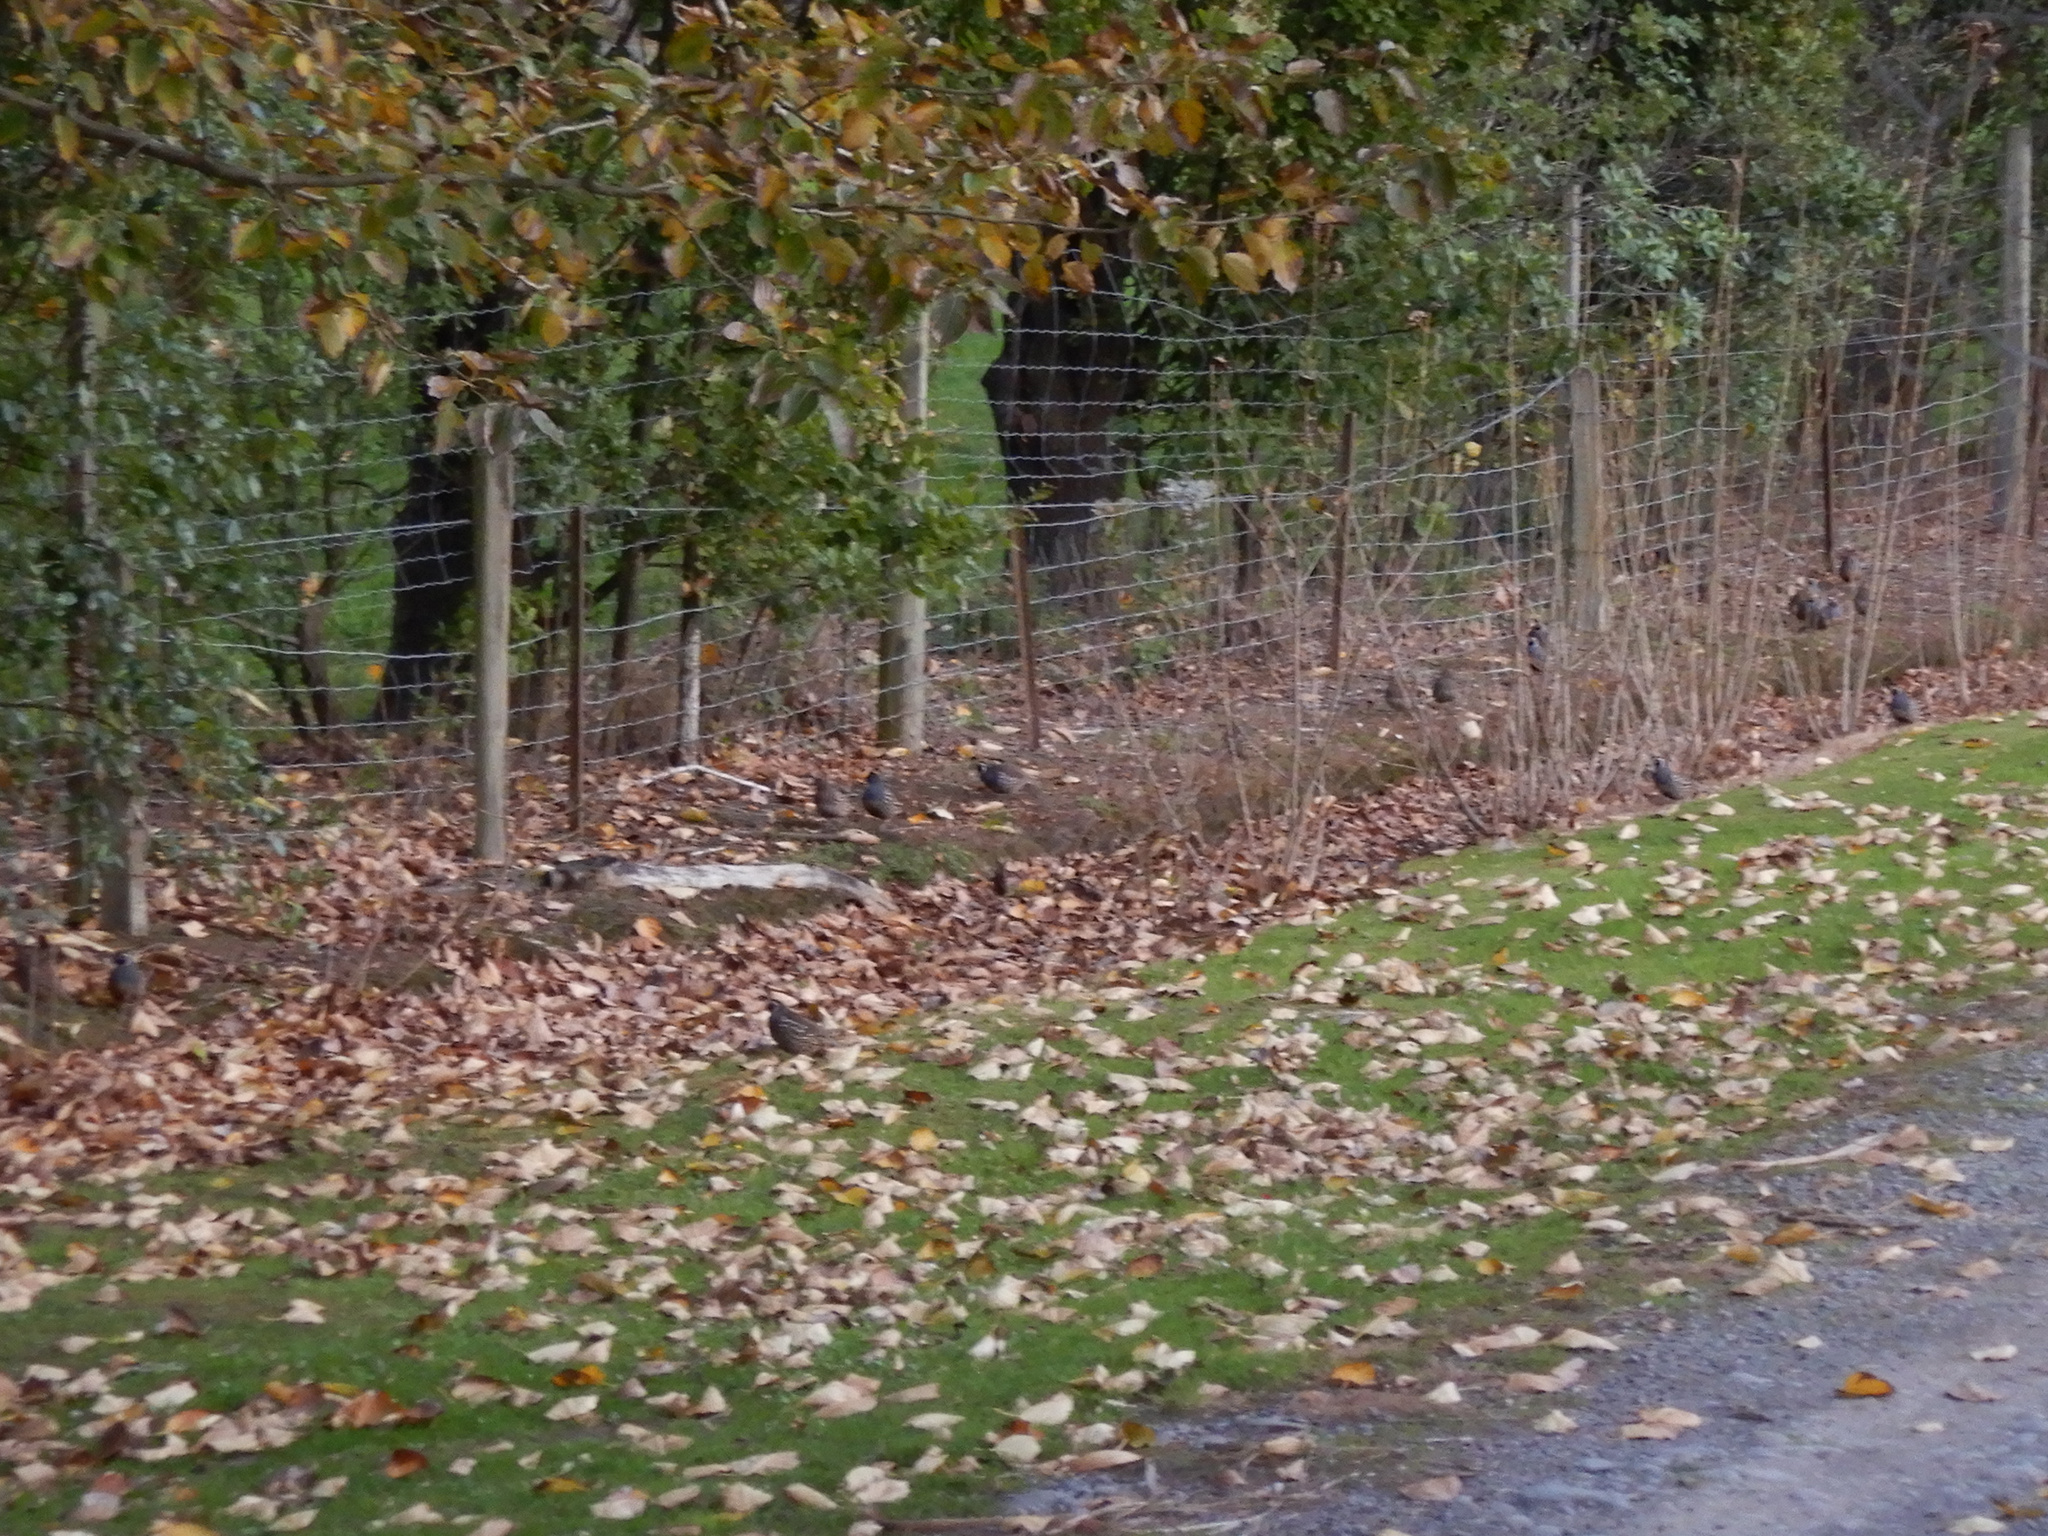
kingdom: Animalia
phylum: Chordata
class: Aves
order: Galliformes
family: Odontophoridae
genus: Callipepla
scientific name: Callipepla californica
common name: California quail
